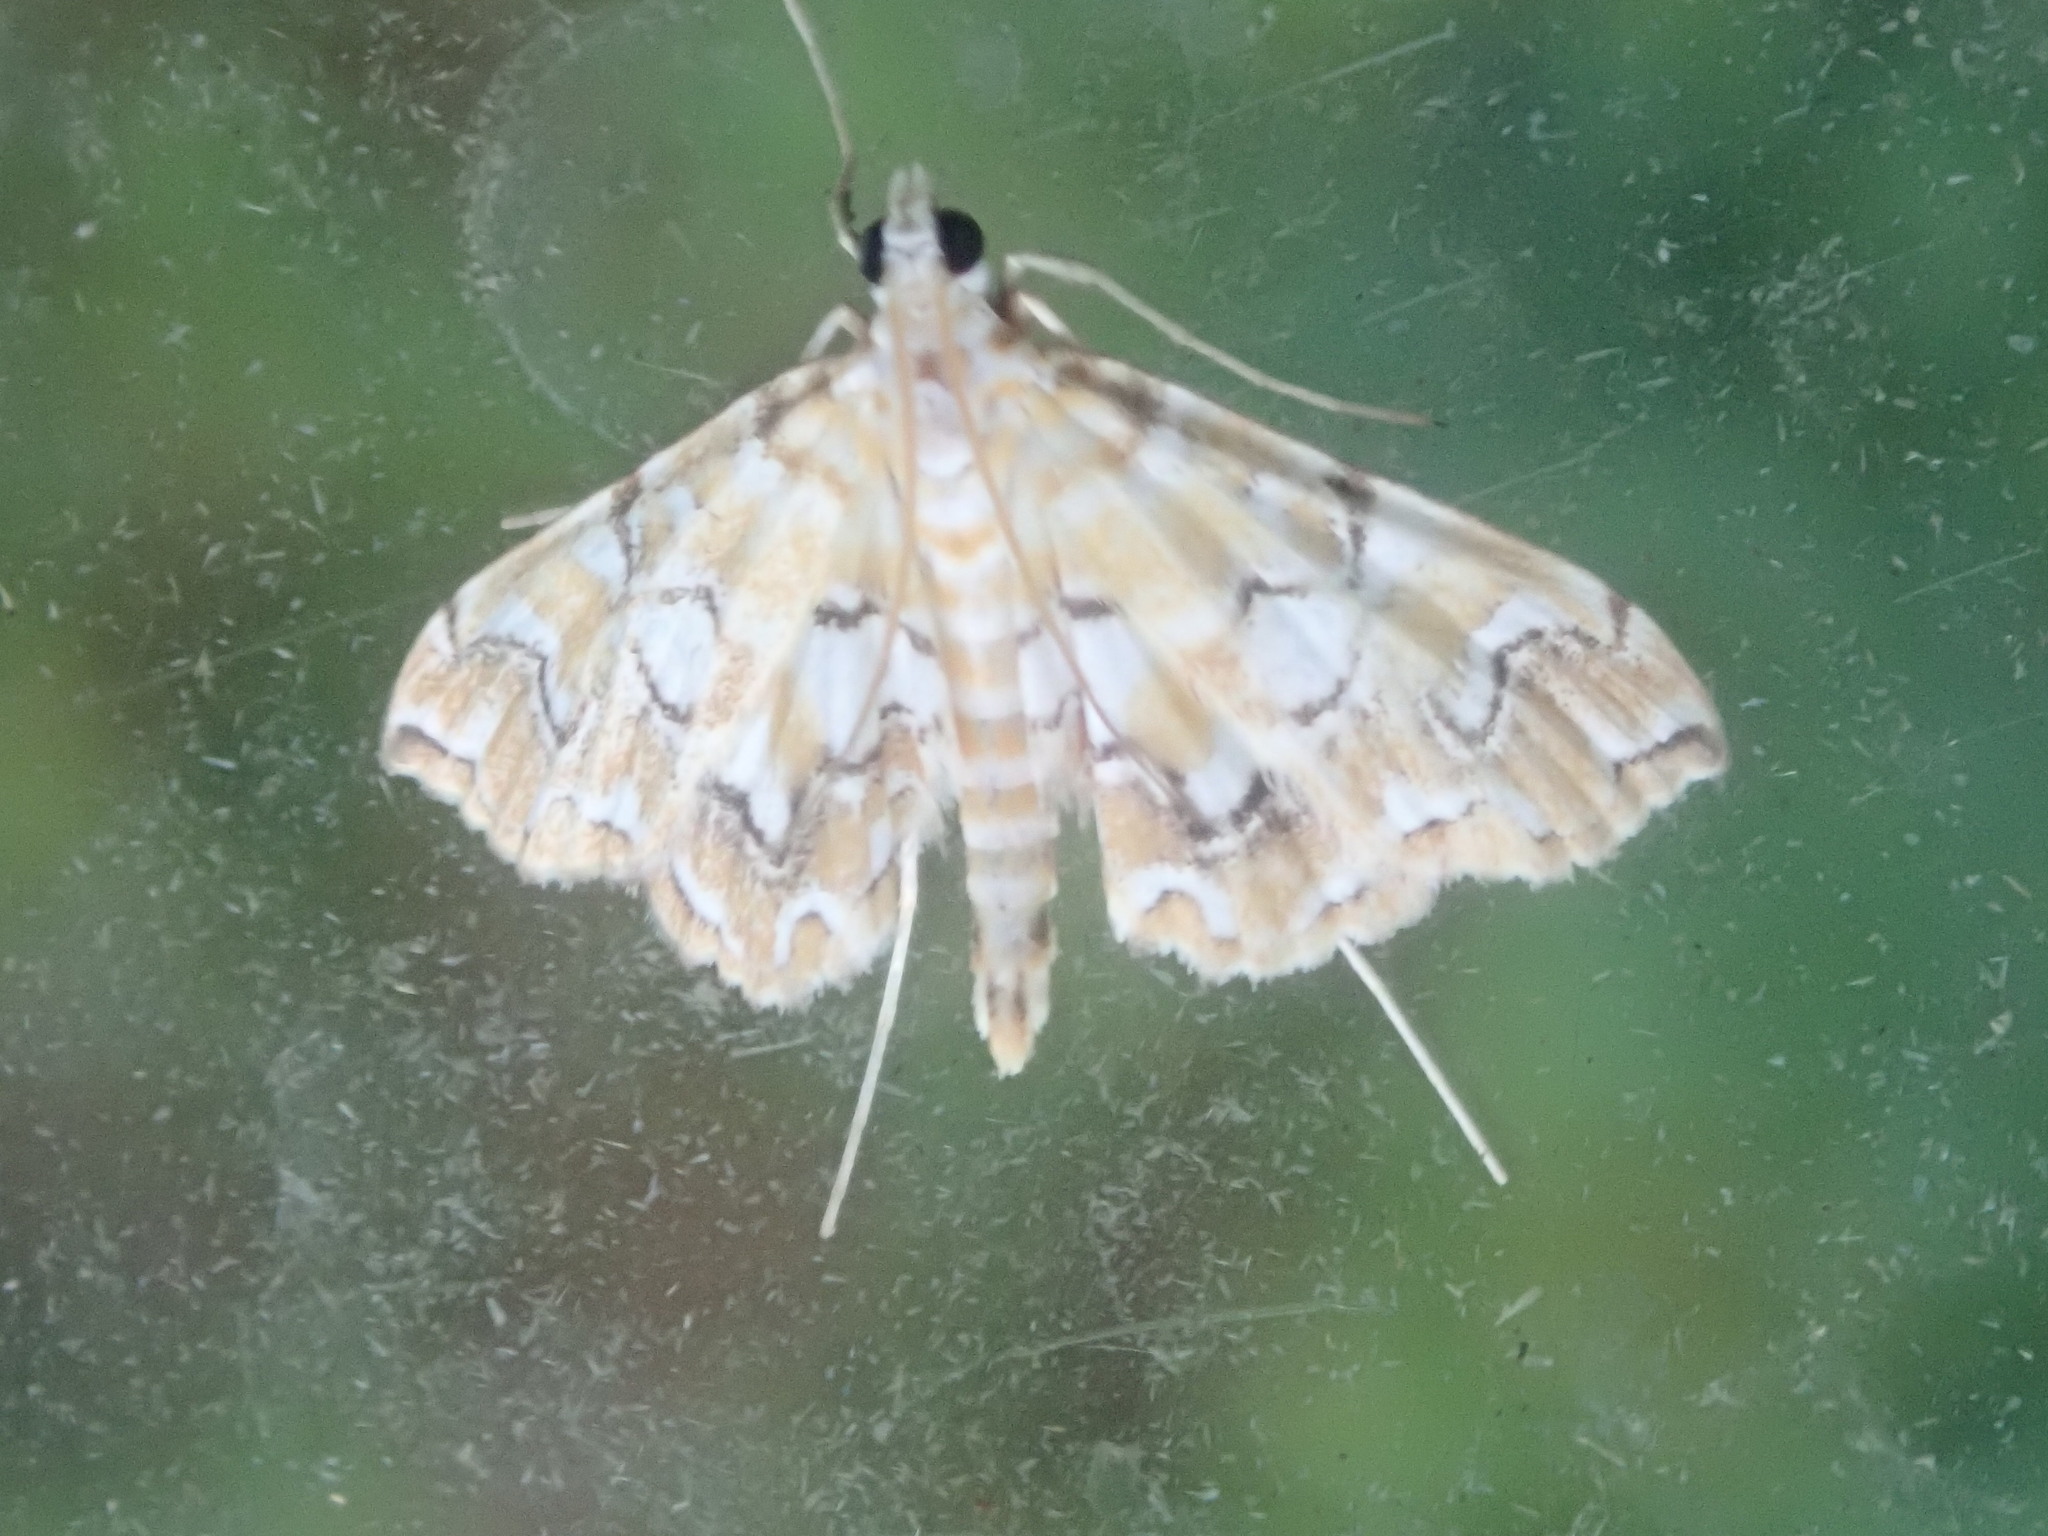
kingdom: Animalia
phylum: Arthropoda
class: Insecta
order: Lepidoptera
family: Crambidae
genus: Elophila
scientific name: Elophila icciusalis
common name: Pondside pyralid moth
